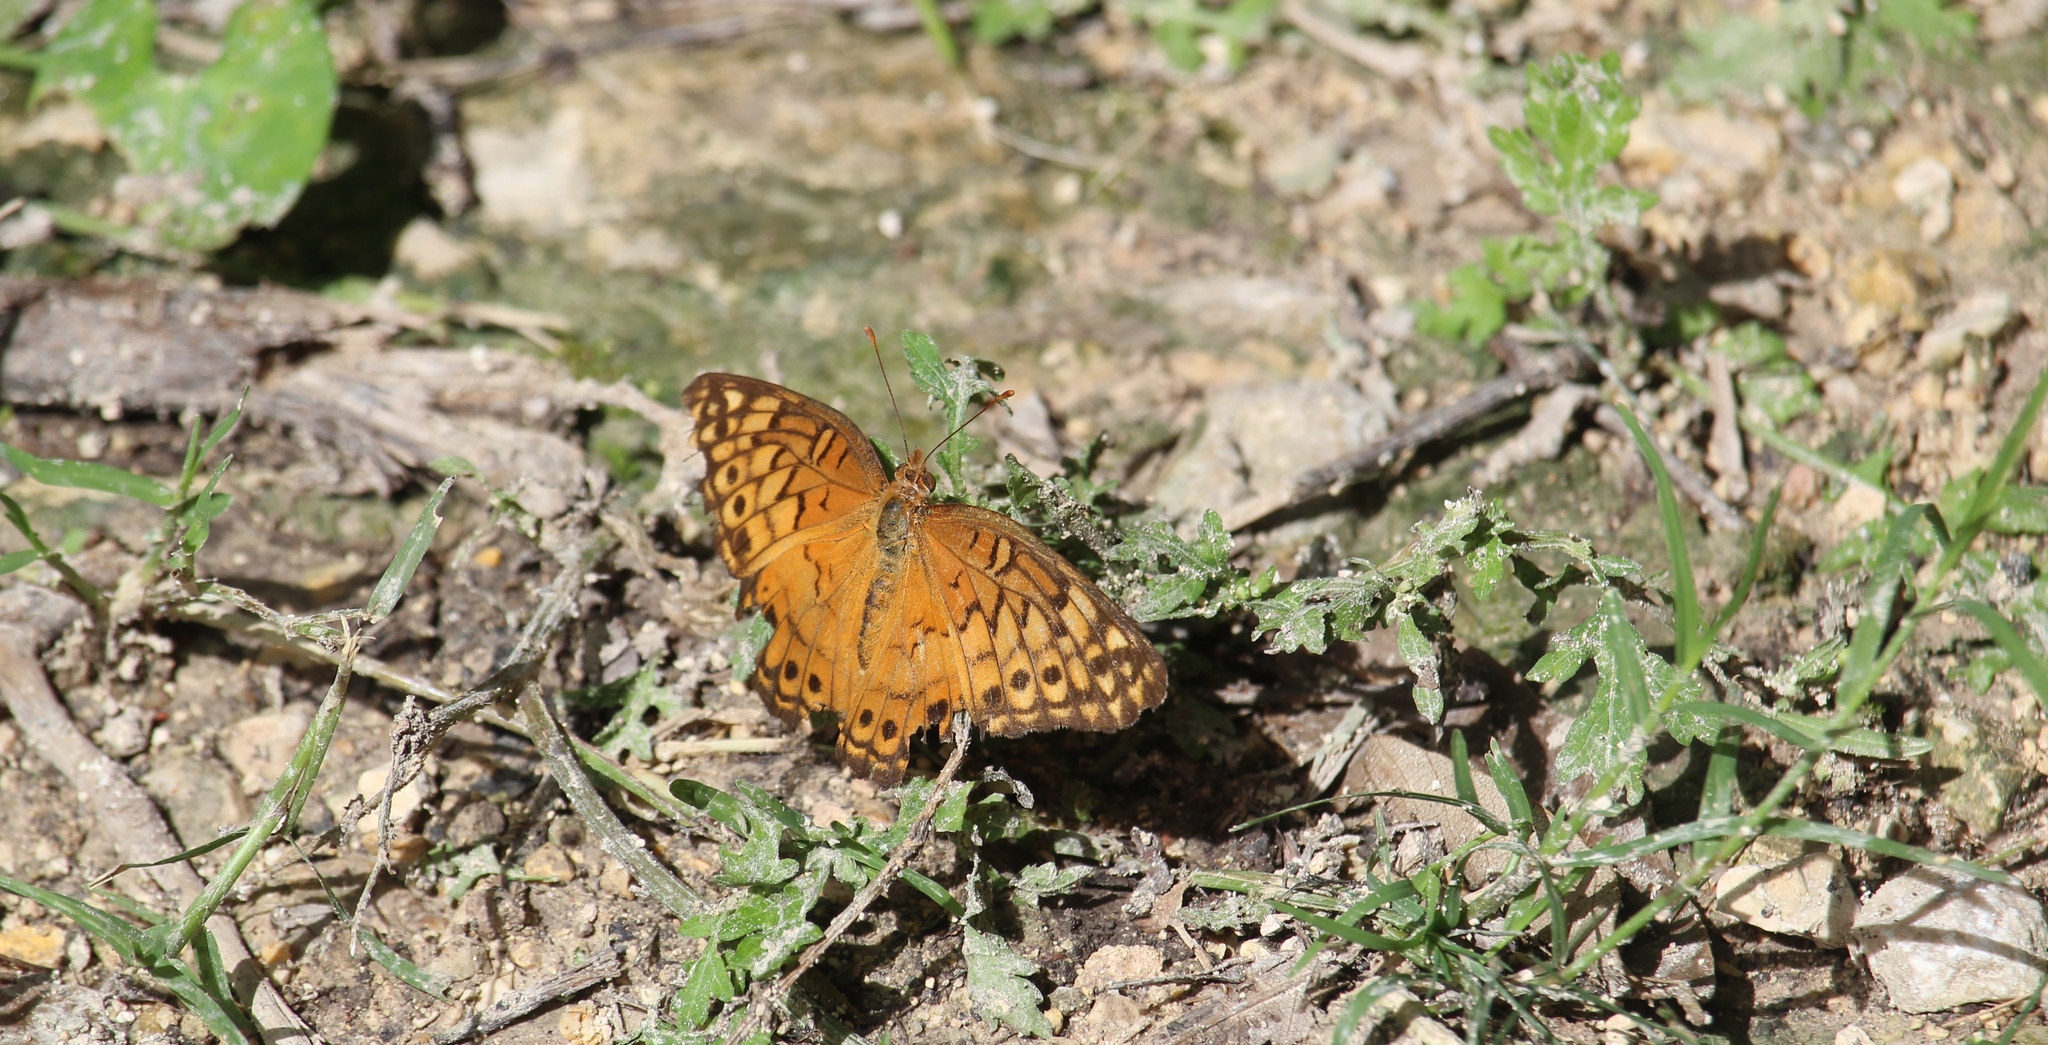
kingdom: Animalia
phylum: Arthropoda
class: Insecta
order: Lepidoptera
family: Nymphalidae
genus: Euptoieta
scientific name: Euptoieta hegesia
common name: Mexican fritillary
